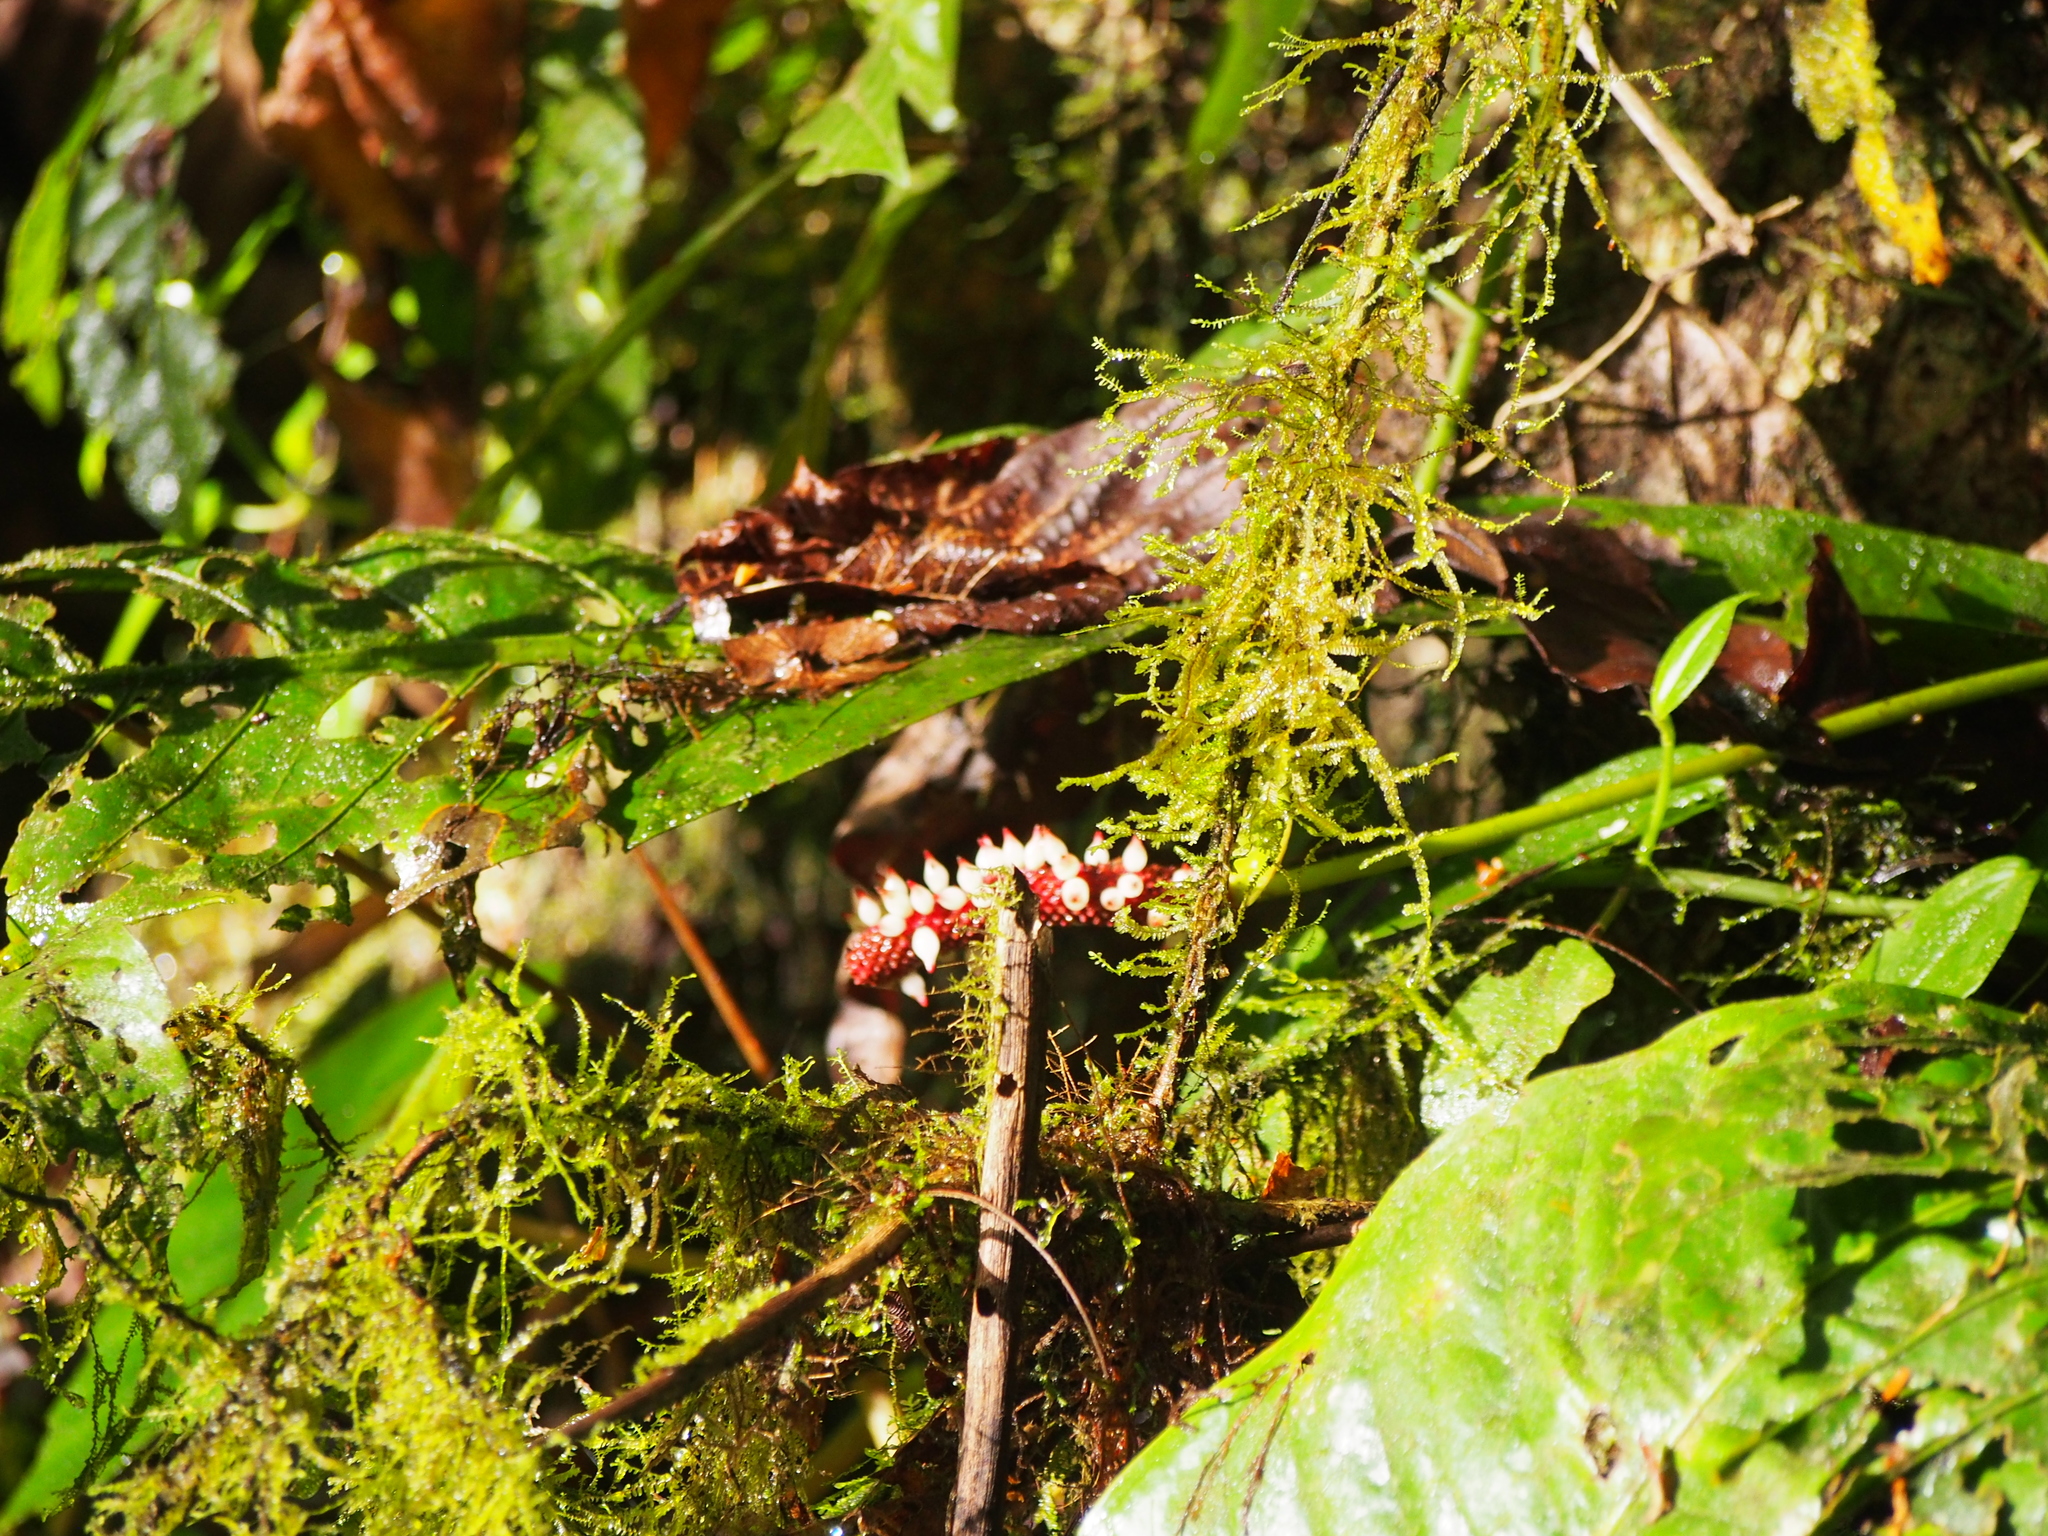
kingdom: Plantae
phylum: Tracheophyta
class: Liliopsida
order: Alismatales
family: Araceae
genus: Anthurium
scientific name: Anthurium consobrinum
